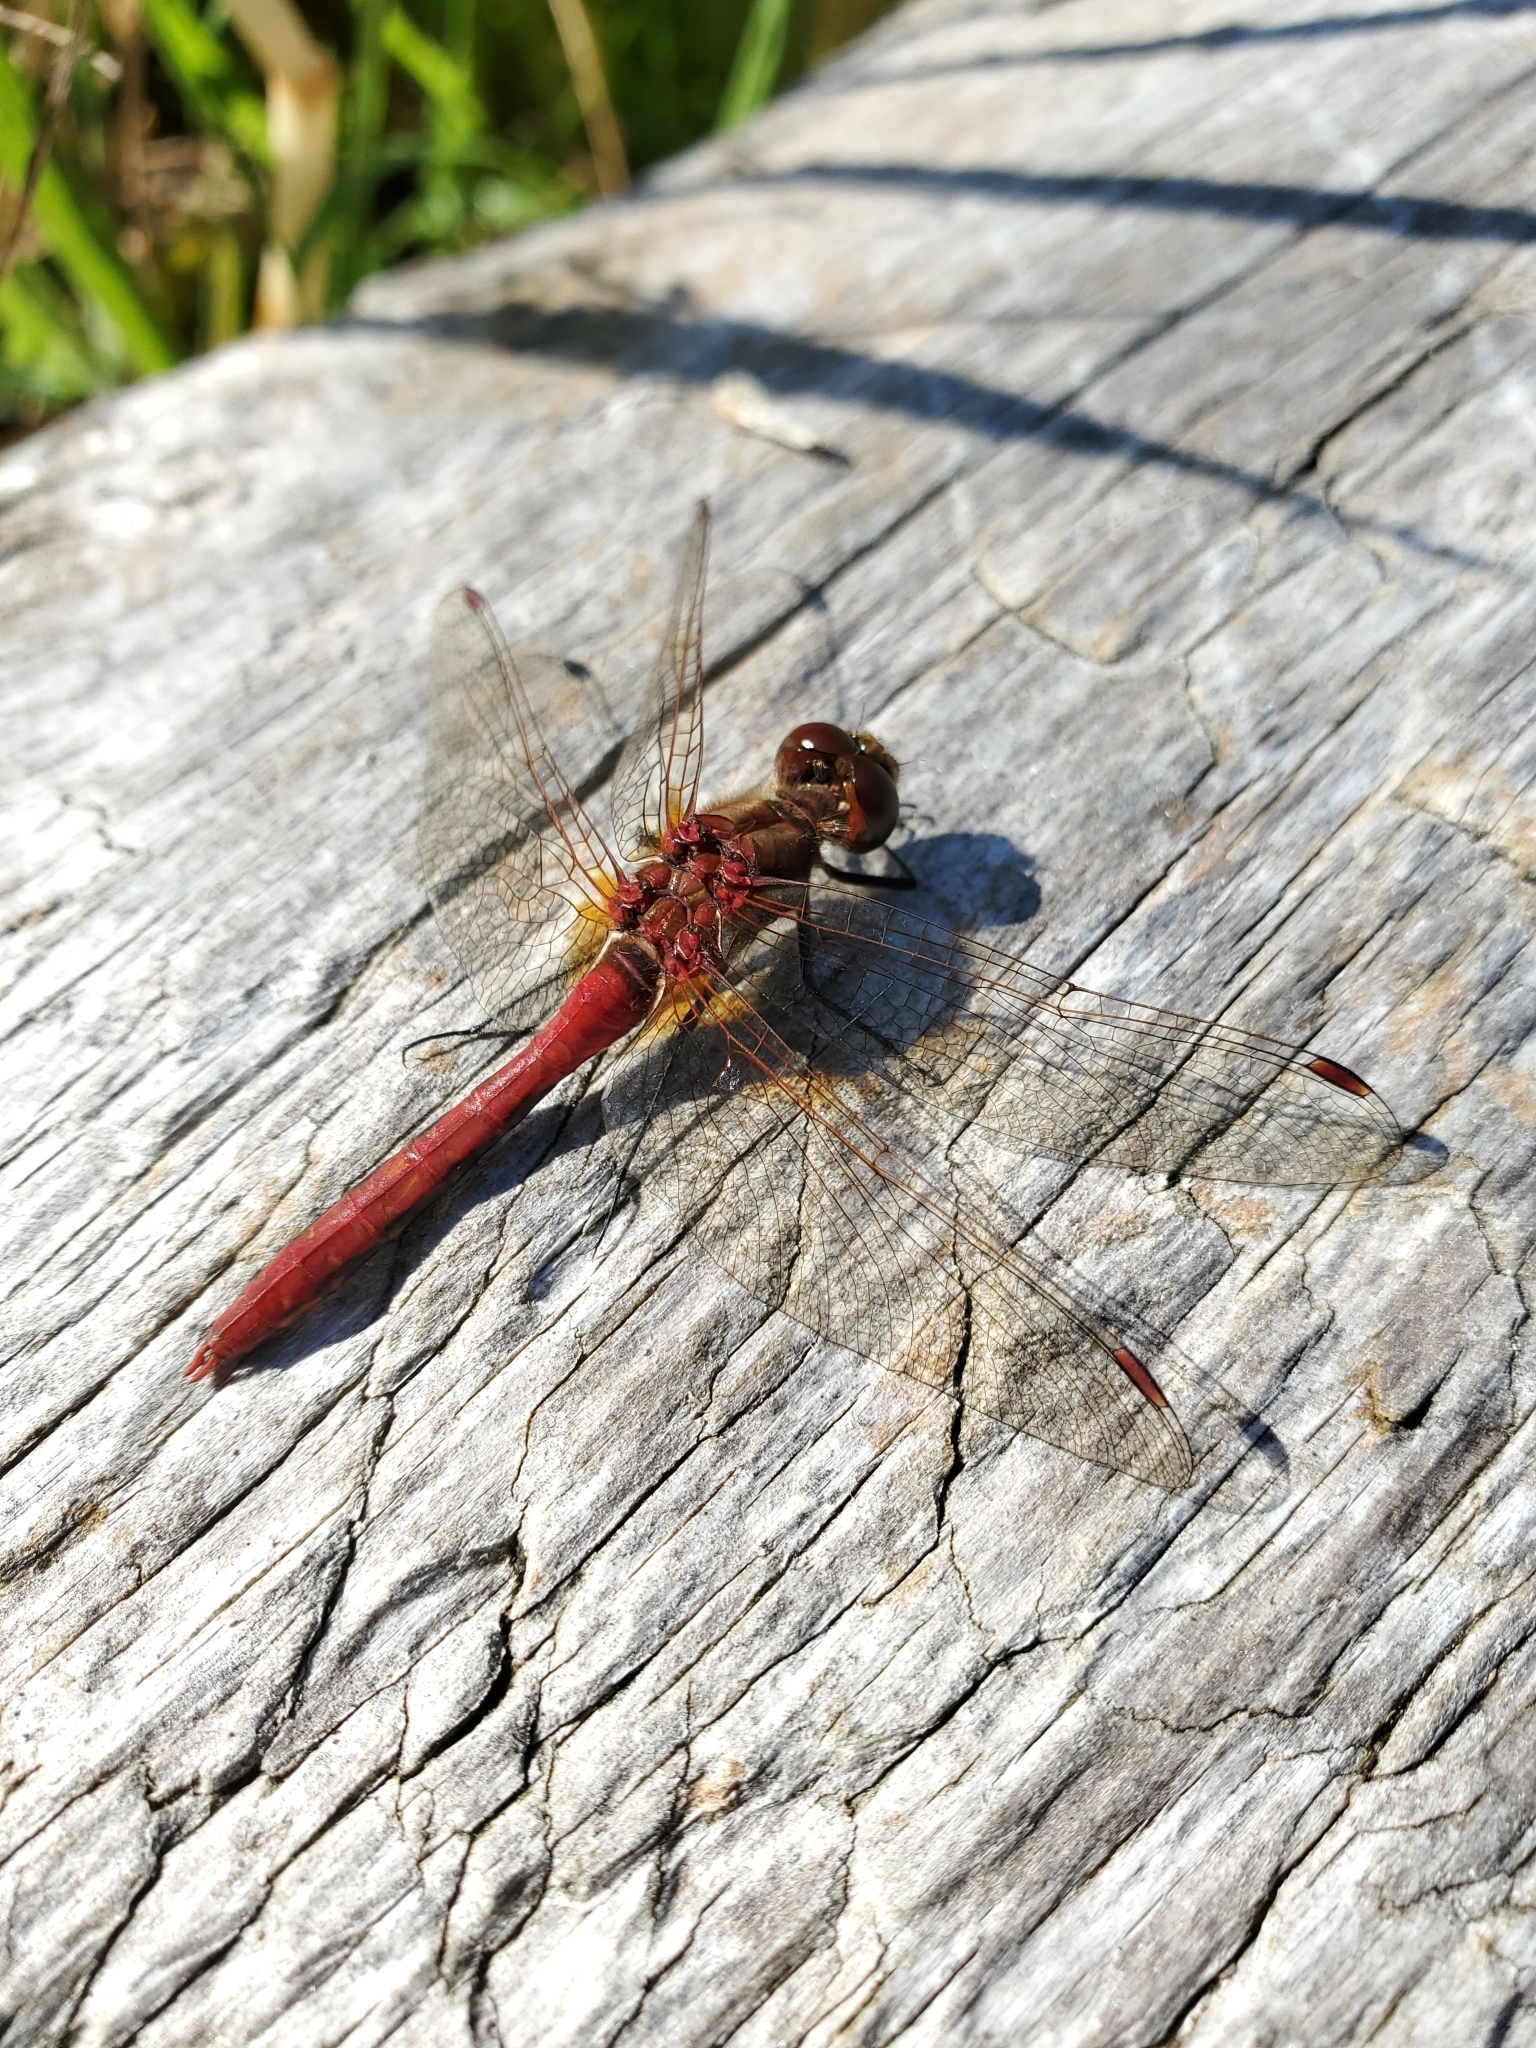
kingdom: Animalia
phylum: Arthropoda
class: Insecta
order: Odonata
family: Libellulidae
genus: Sympetrum
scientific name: Sympetrum pallipes
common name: Striped meadowhawk
